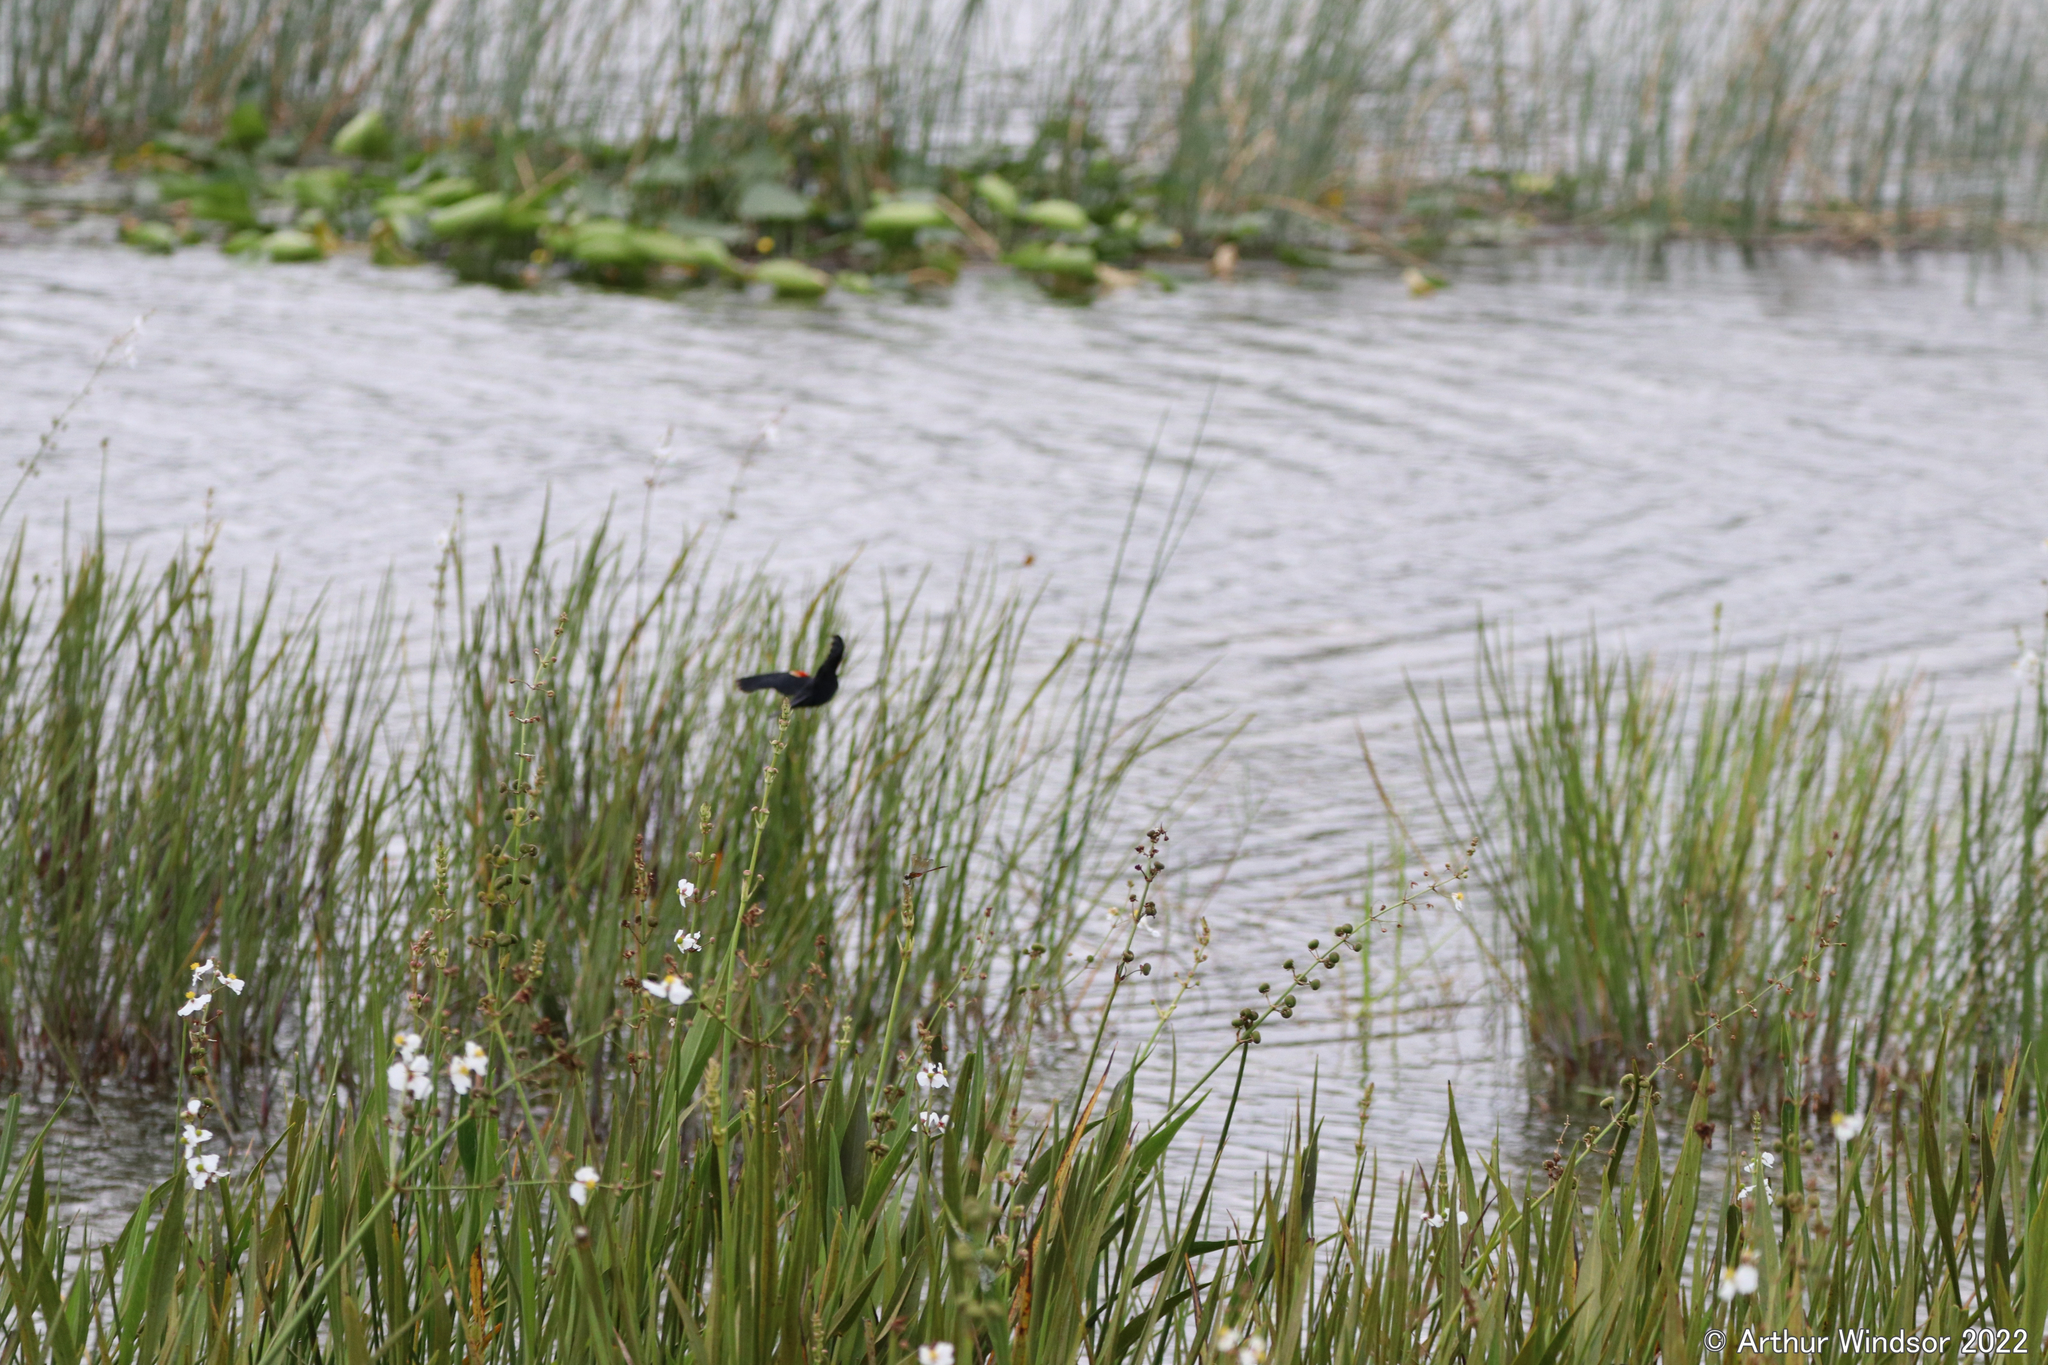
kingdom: Animalia
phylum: Chordata
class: Aves
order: Passeriformes
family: Icteridae
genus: Agelaius
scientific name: Agelaius phoeniceus
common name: Red-winged blackbird
